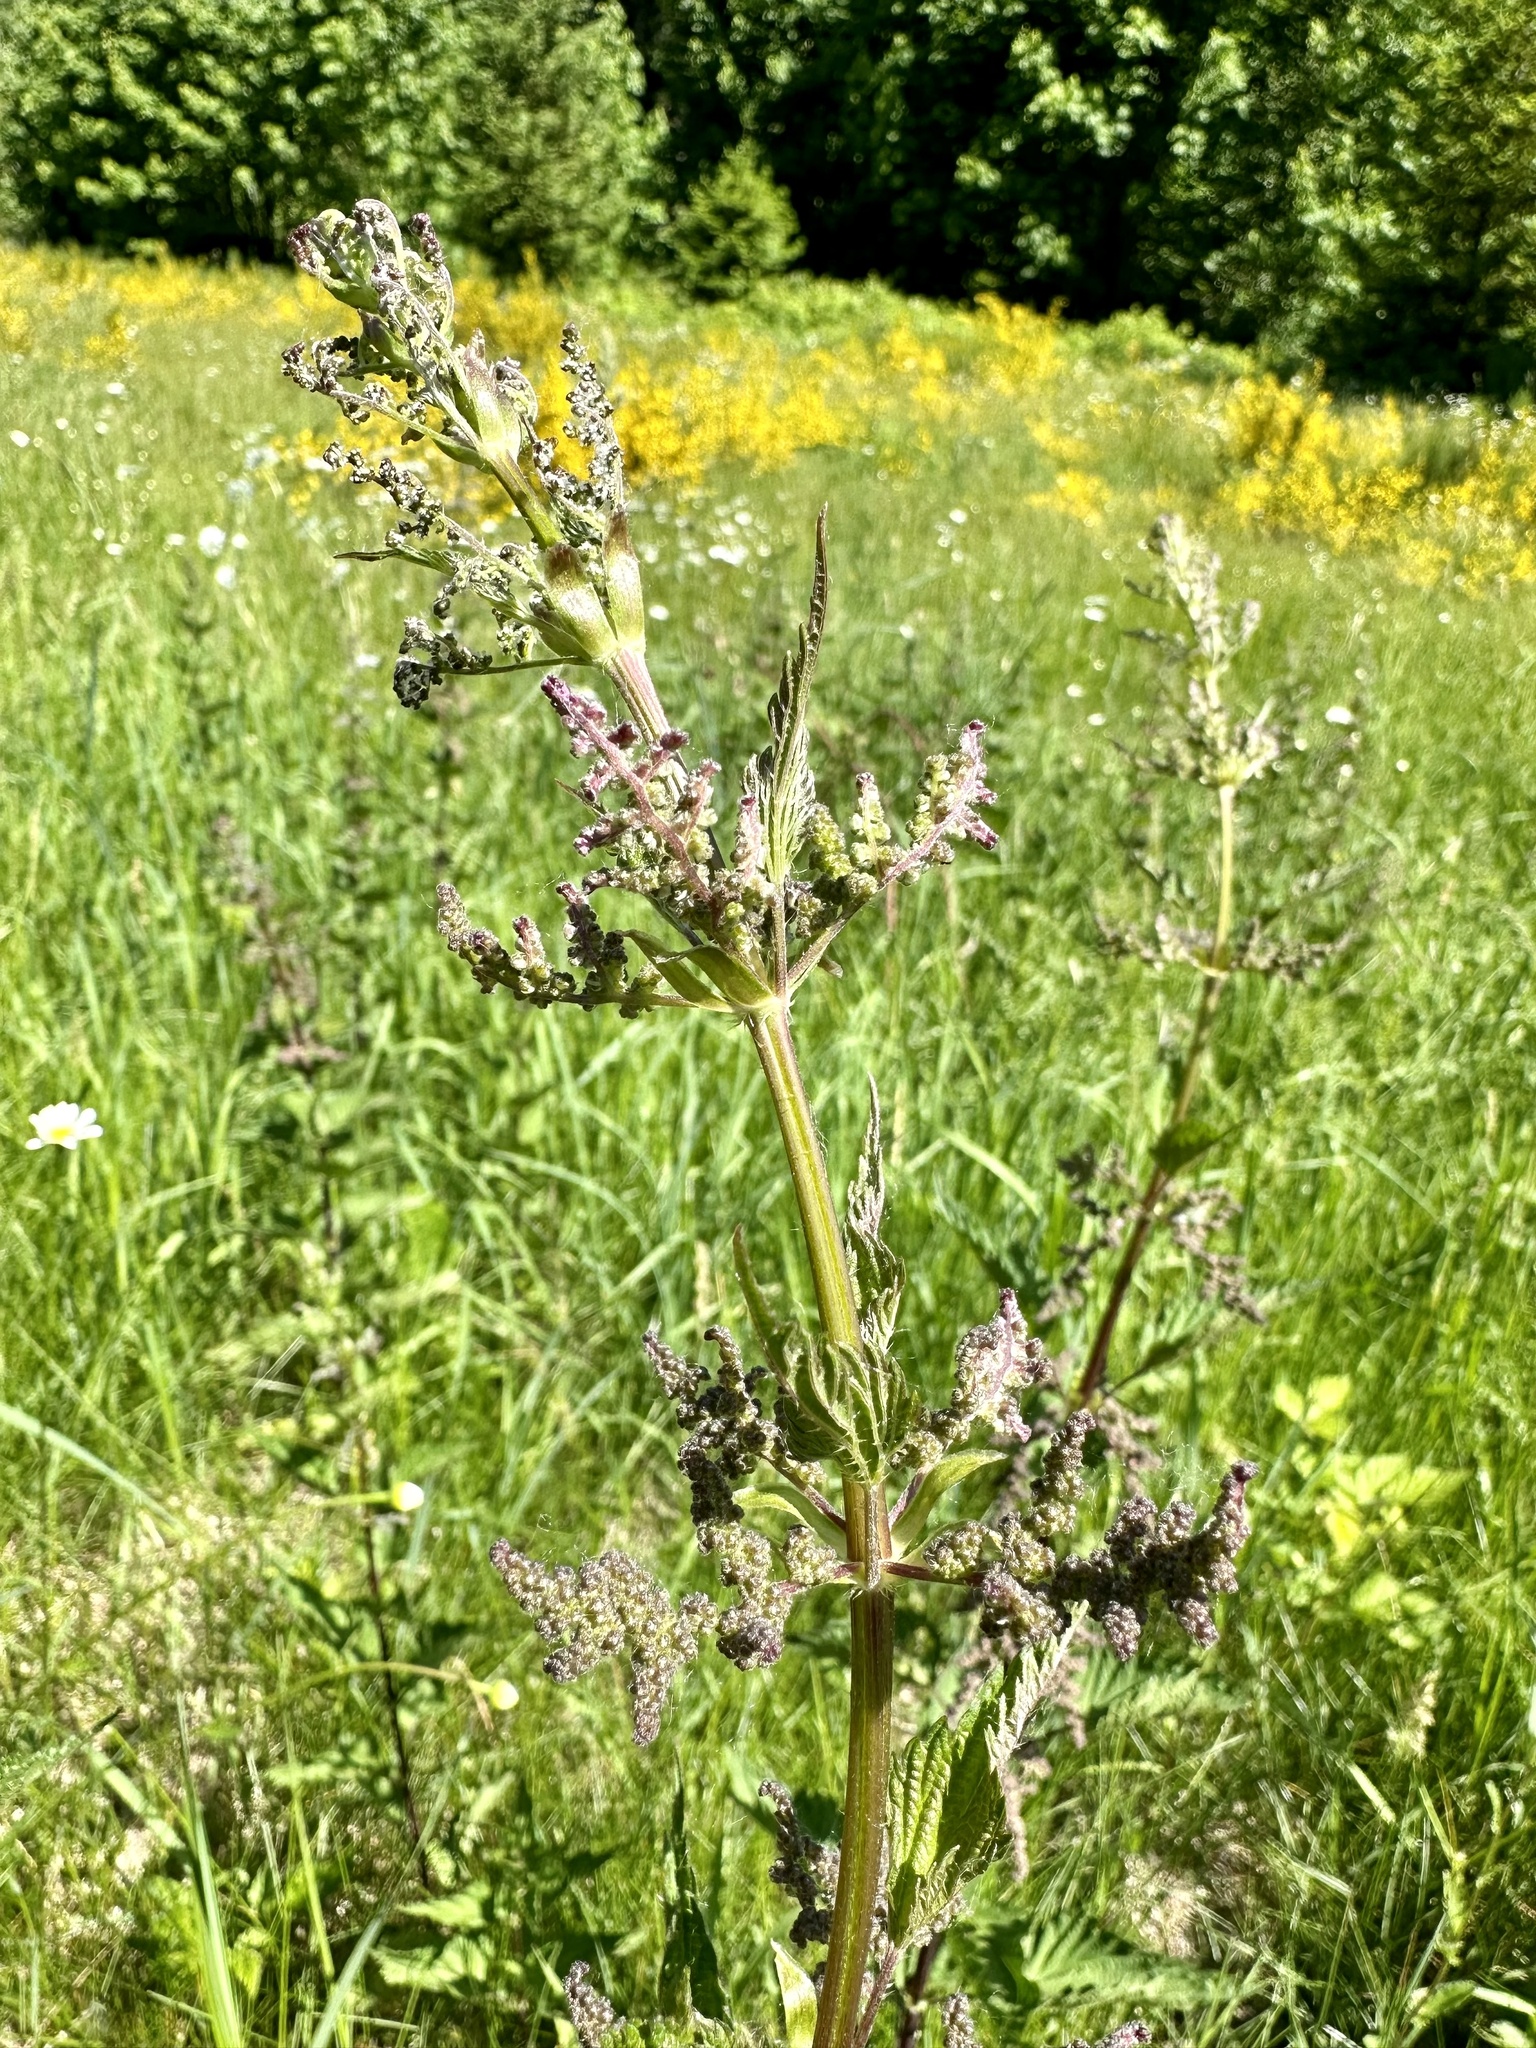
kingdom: Plantae
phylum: Tracheophyta
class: Magnoliopsida
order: Rosales
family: Urticaceae
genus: Urtica
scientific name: Urtica dioica
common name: Common nettle
